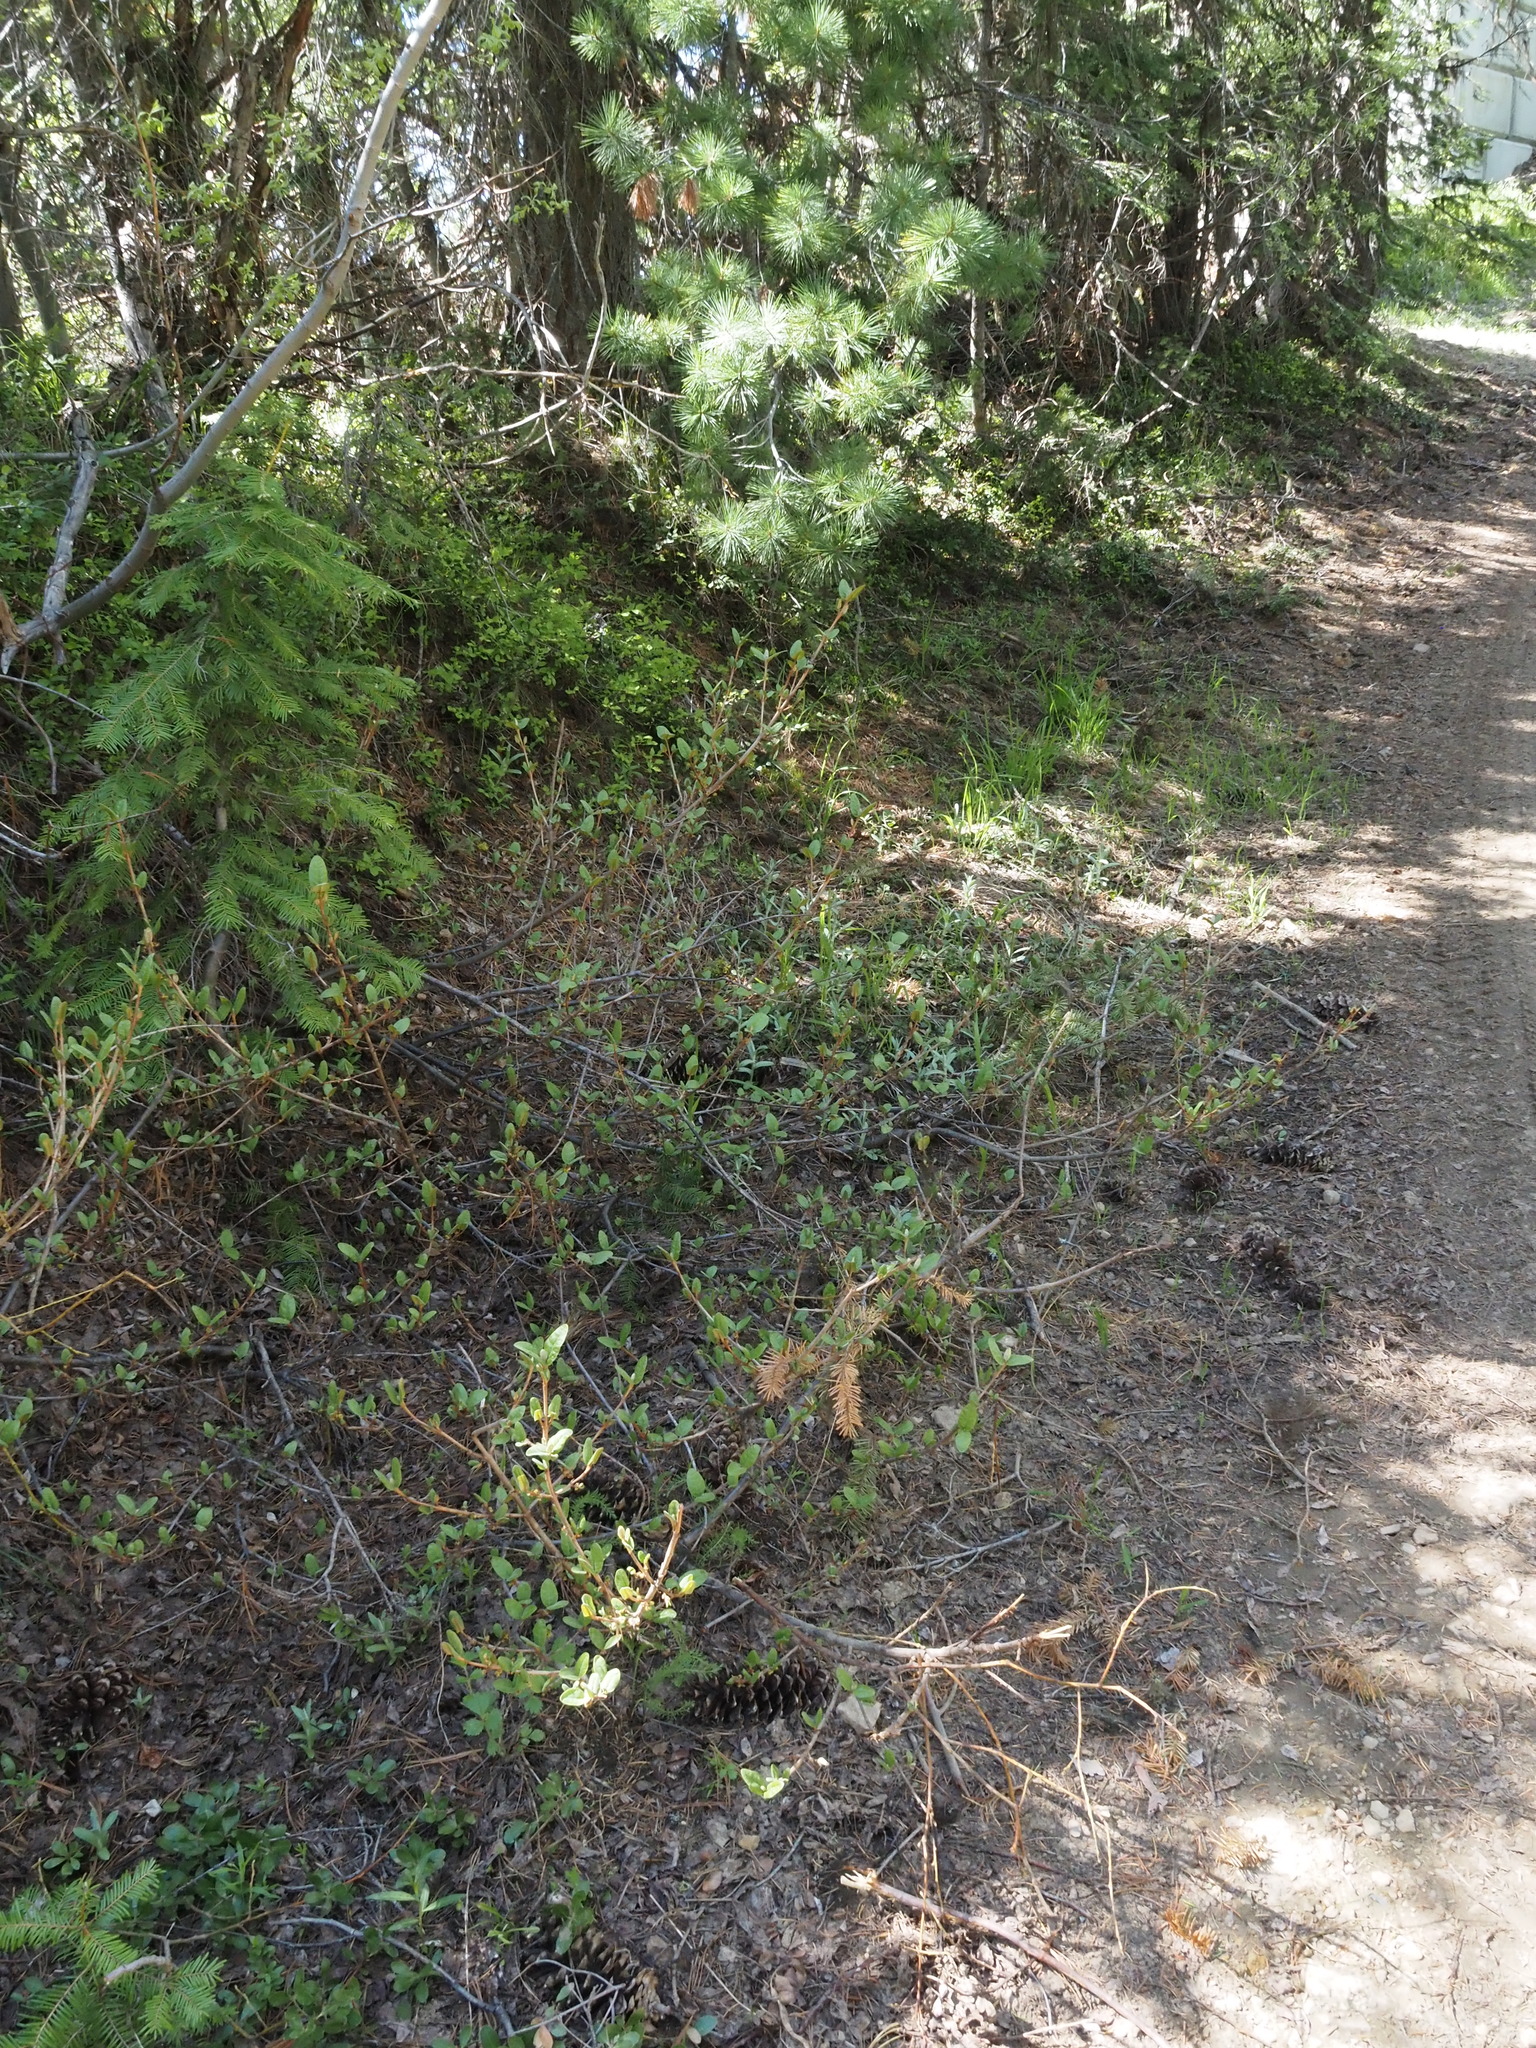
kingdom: Plantae
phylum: Tracheophyta
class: Magnoliopsida
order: Rosales
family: Elaeagnaceae
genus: Shepherdia
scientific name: Shepherdia canadensis
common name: Soapberry
